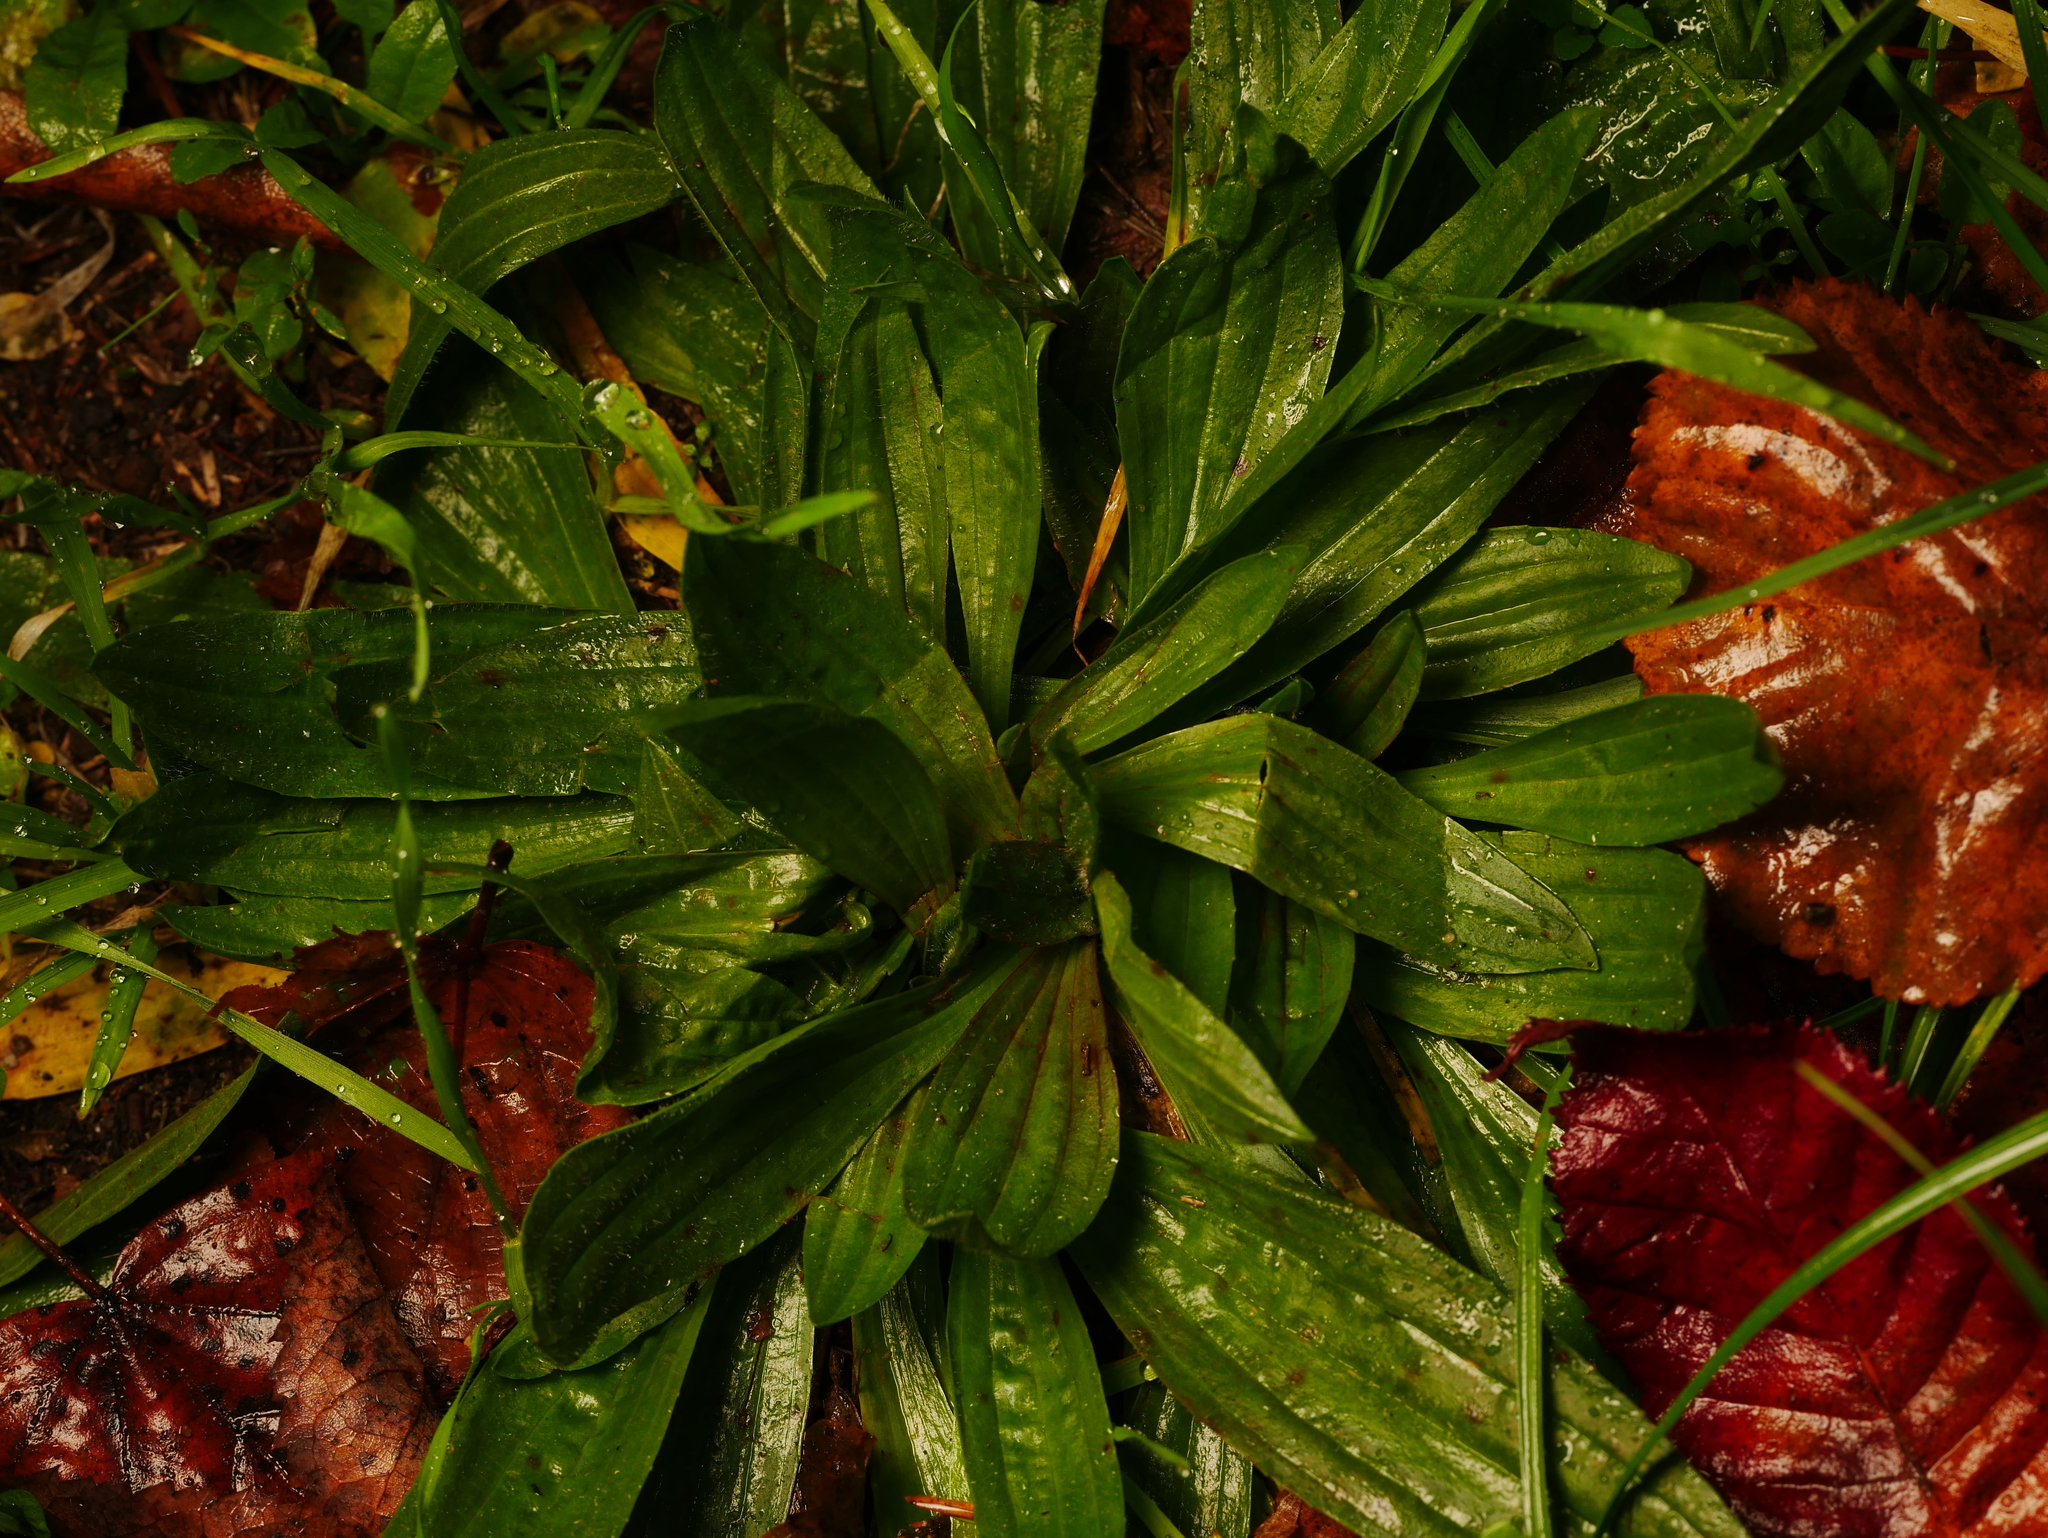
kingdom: Plantae
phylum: Tracheophyta
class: Magnoliopsida
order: Lamiales
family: Plantaginaceae
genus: Plantago
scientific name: Plantago lanceolata
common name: Ribwort plantain
